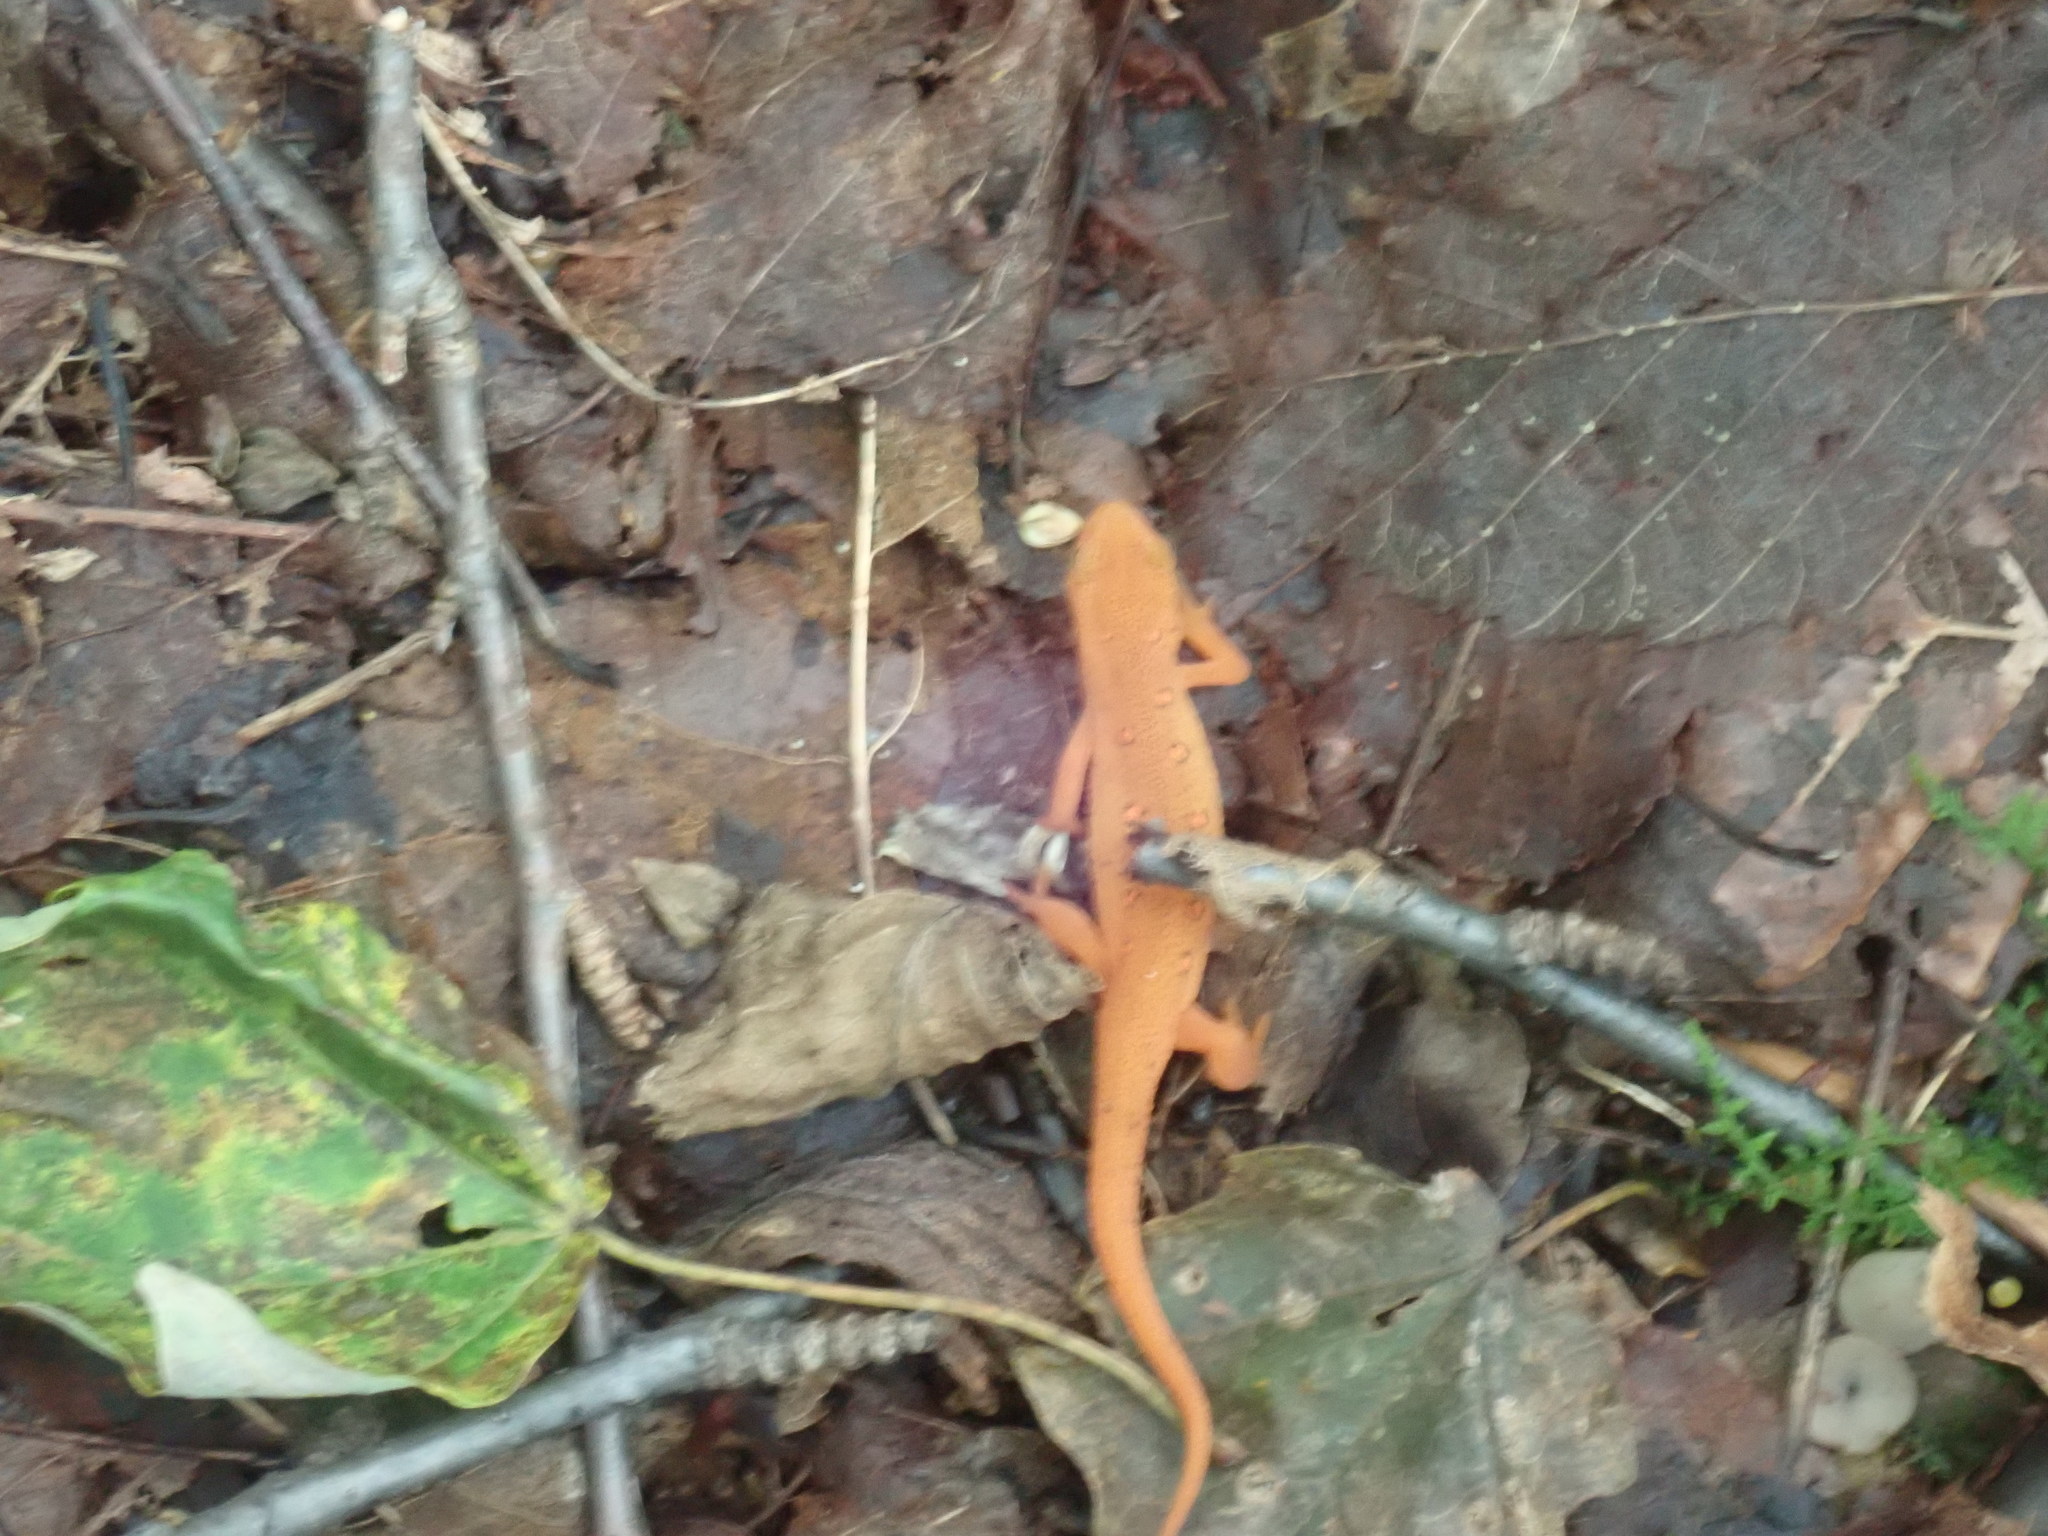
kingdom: Animalia
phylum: Chordata
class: Amphibia
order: Caudata
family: Salamandridae
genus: Notophthalmus
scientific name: Notophthalmus viridescens
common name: Eastern newt
